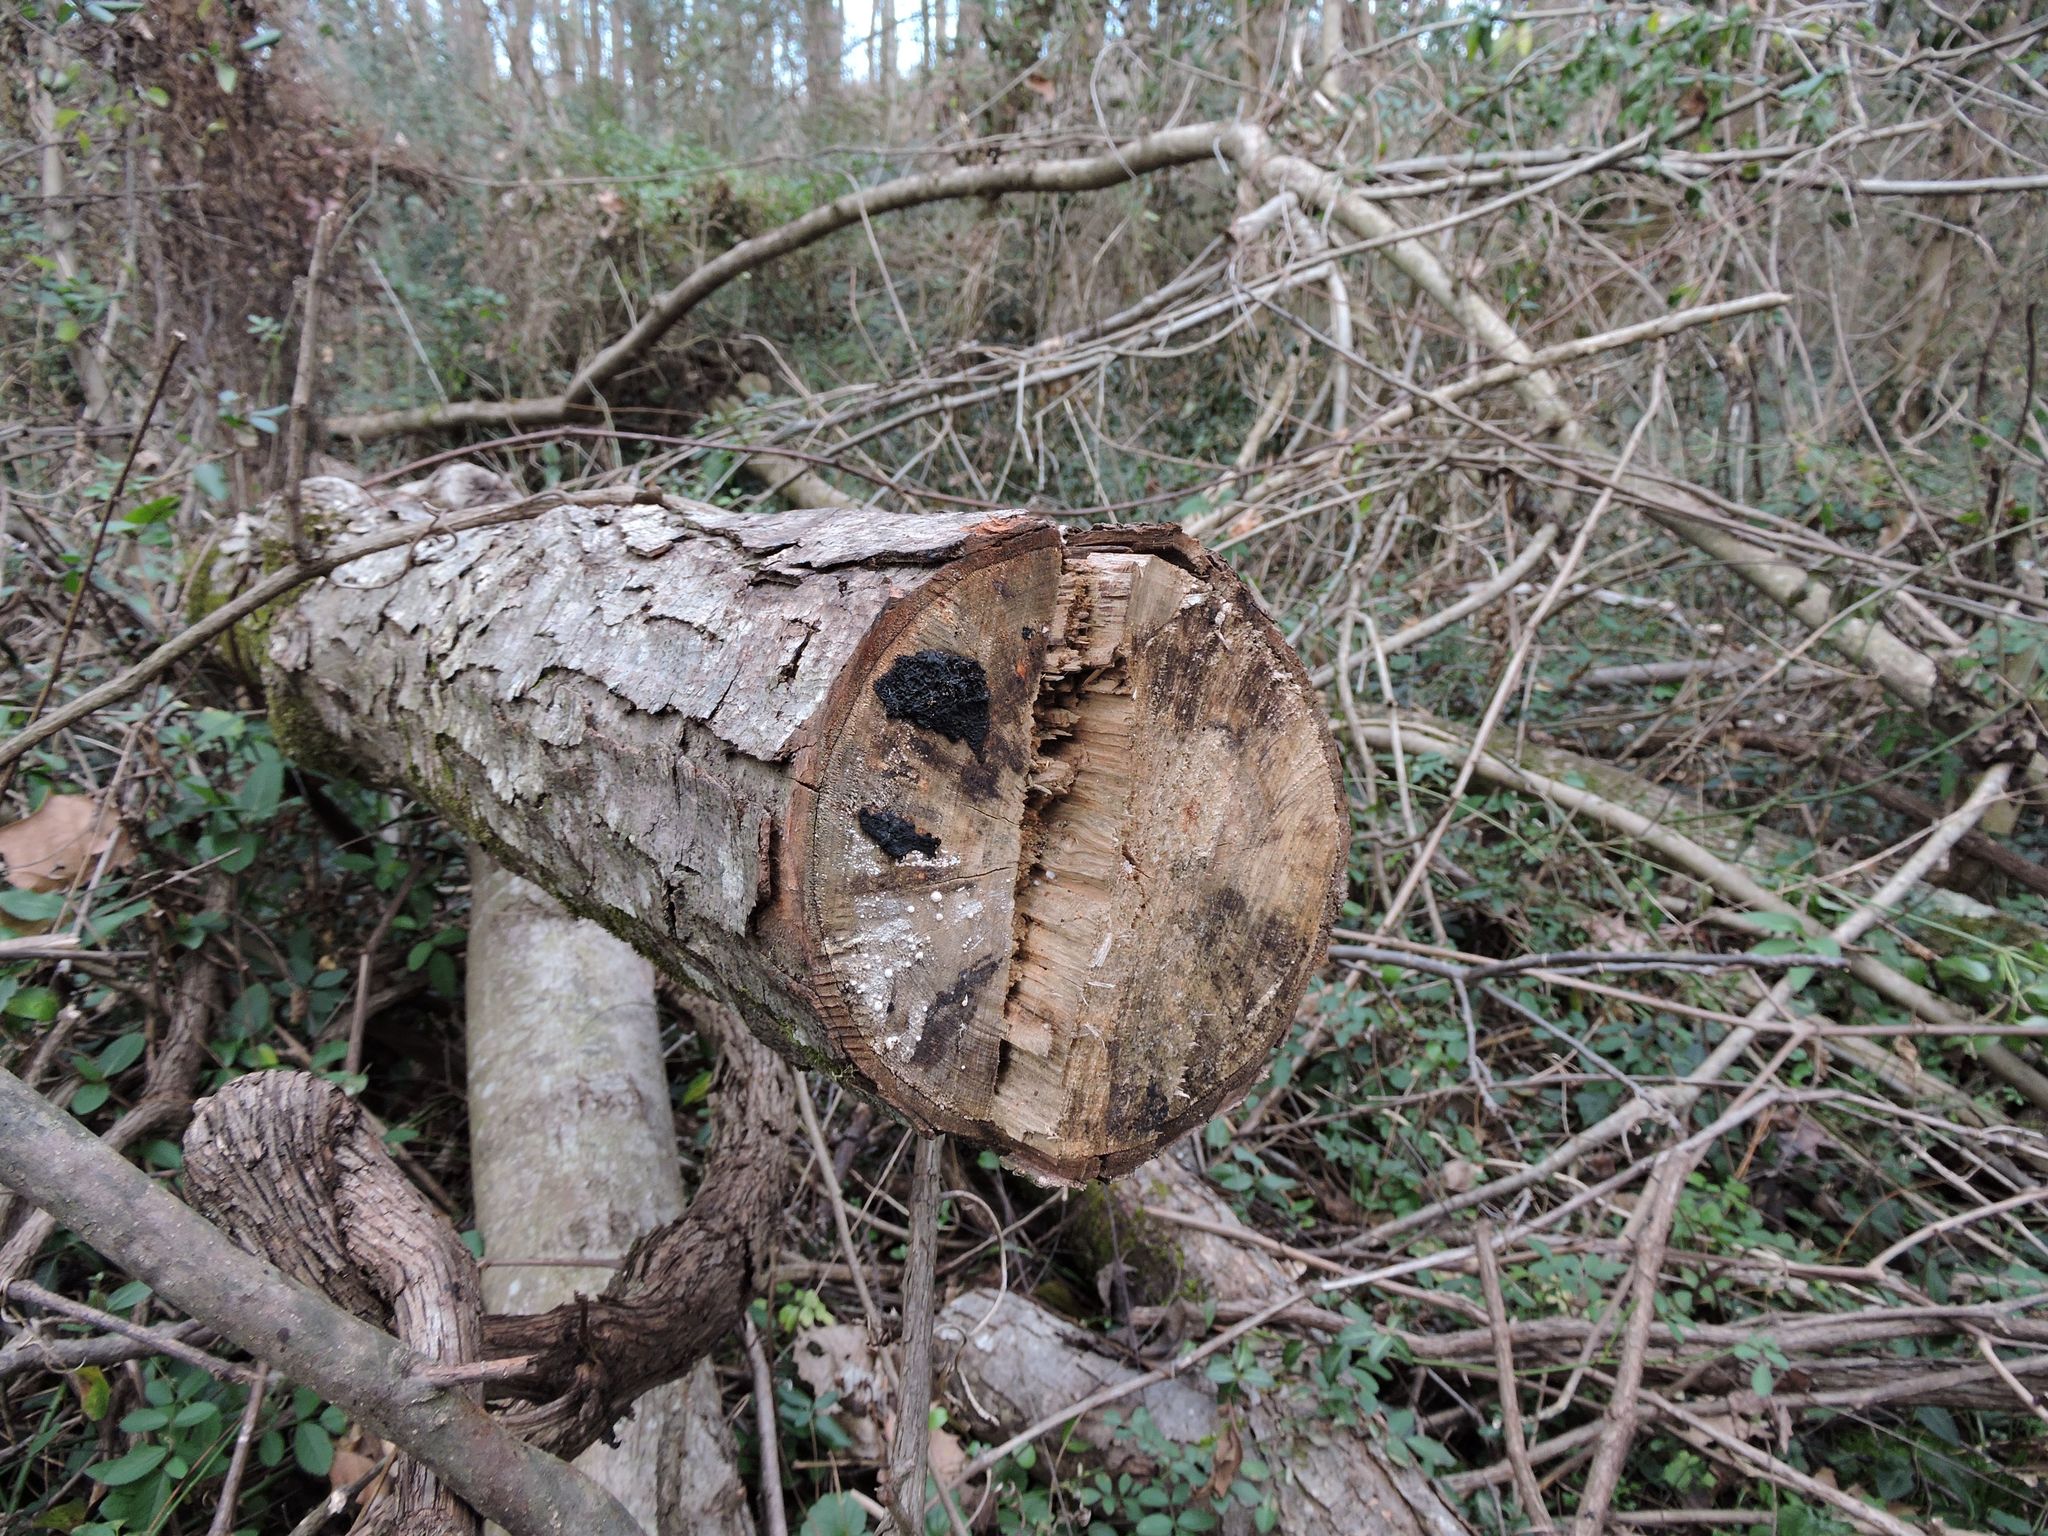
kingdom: Fungi
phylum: Basidiomycota
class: Agaricomycetes
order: Auriculariales
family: Auriculariaceae
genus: Exidia
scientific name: Exidia glandulosa
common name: Witches' butter
